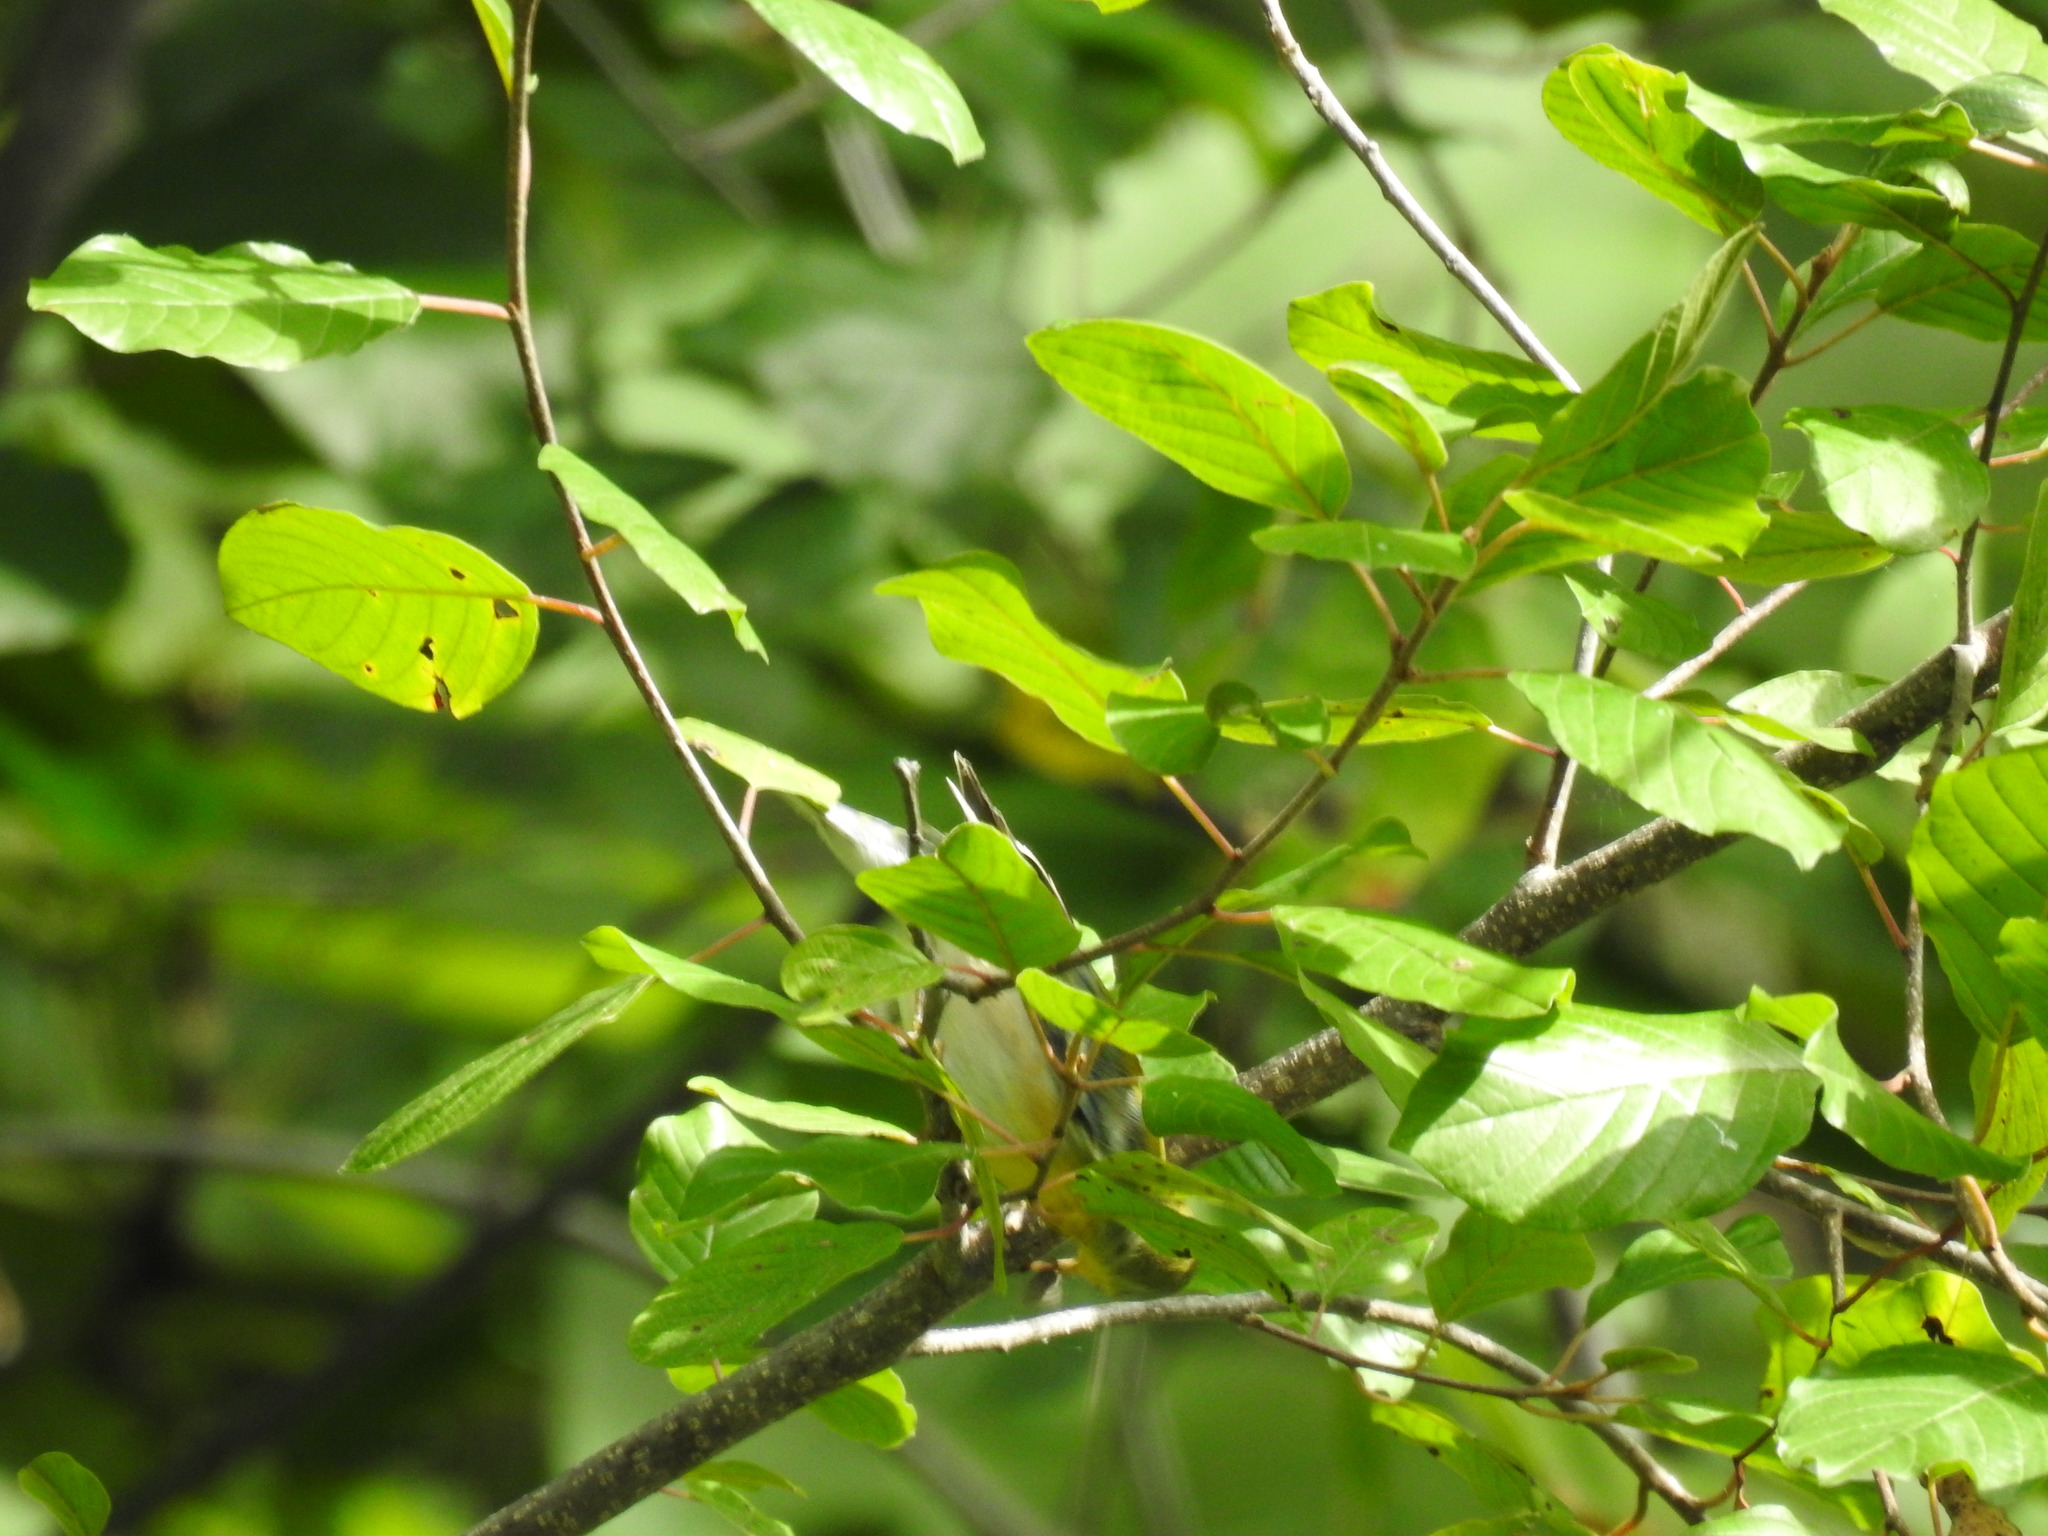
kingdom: Animalia
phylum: Chordata
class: Aves
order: Passeriformes
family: Parulidae
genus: Setophaga
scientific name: Setophaga americana
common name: Northern parula
